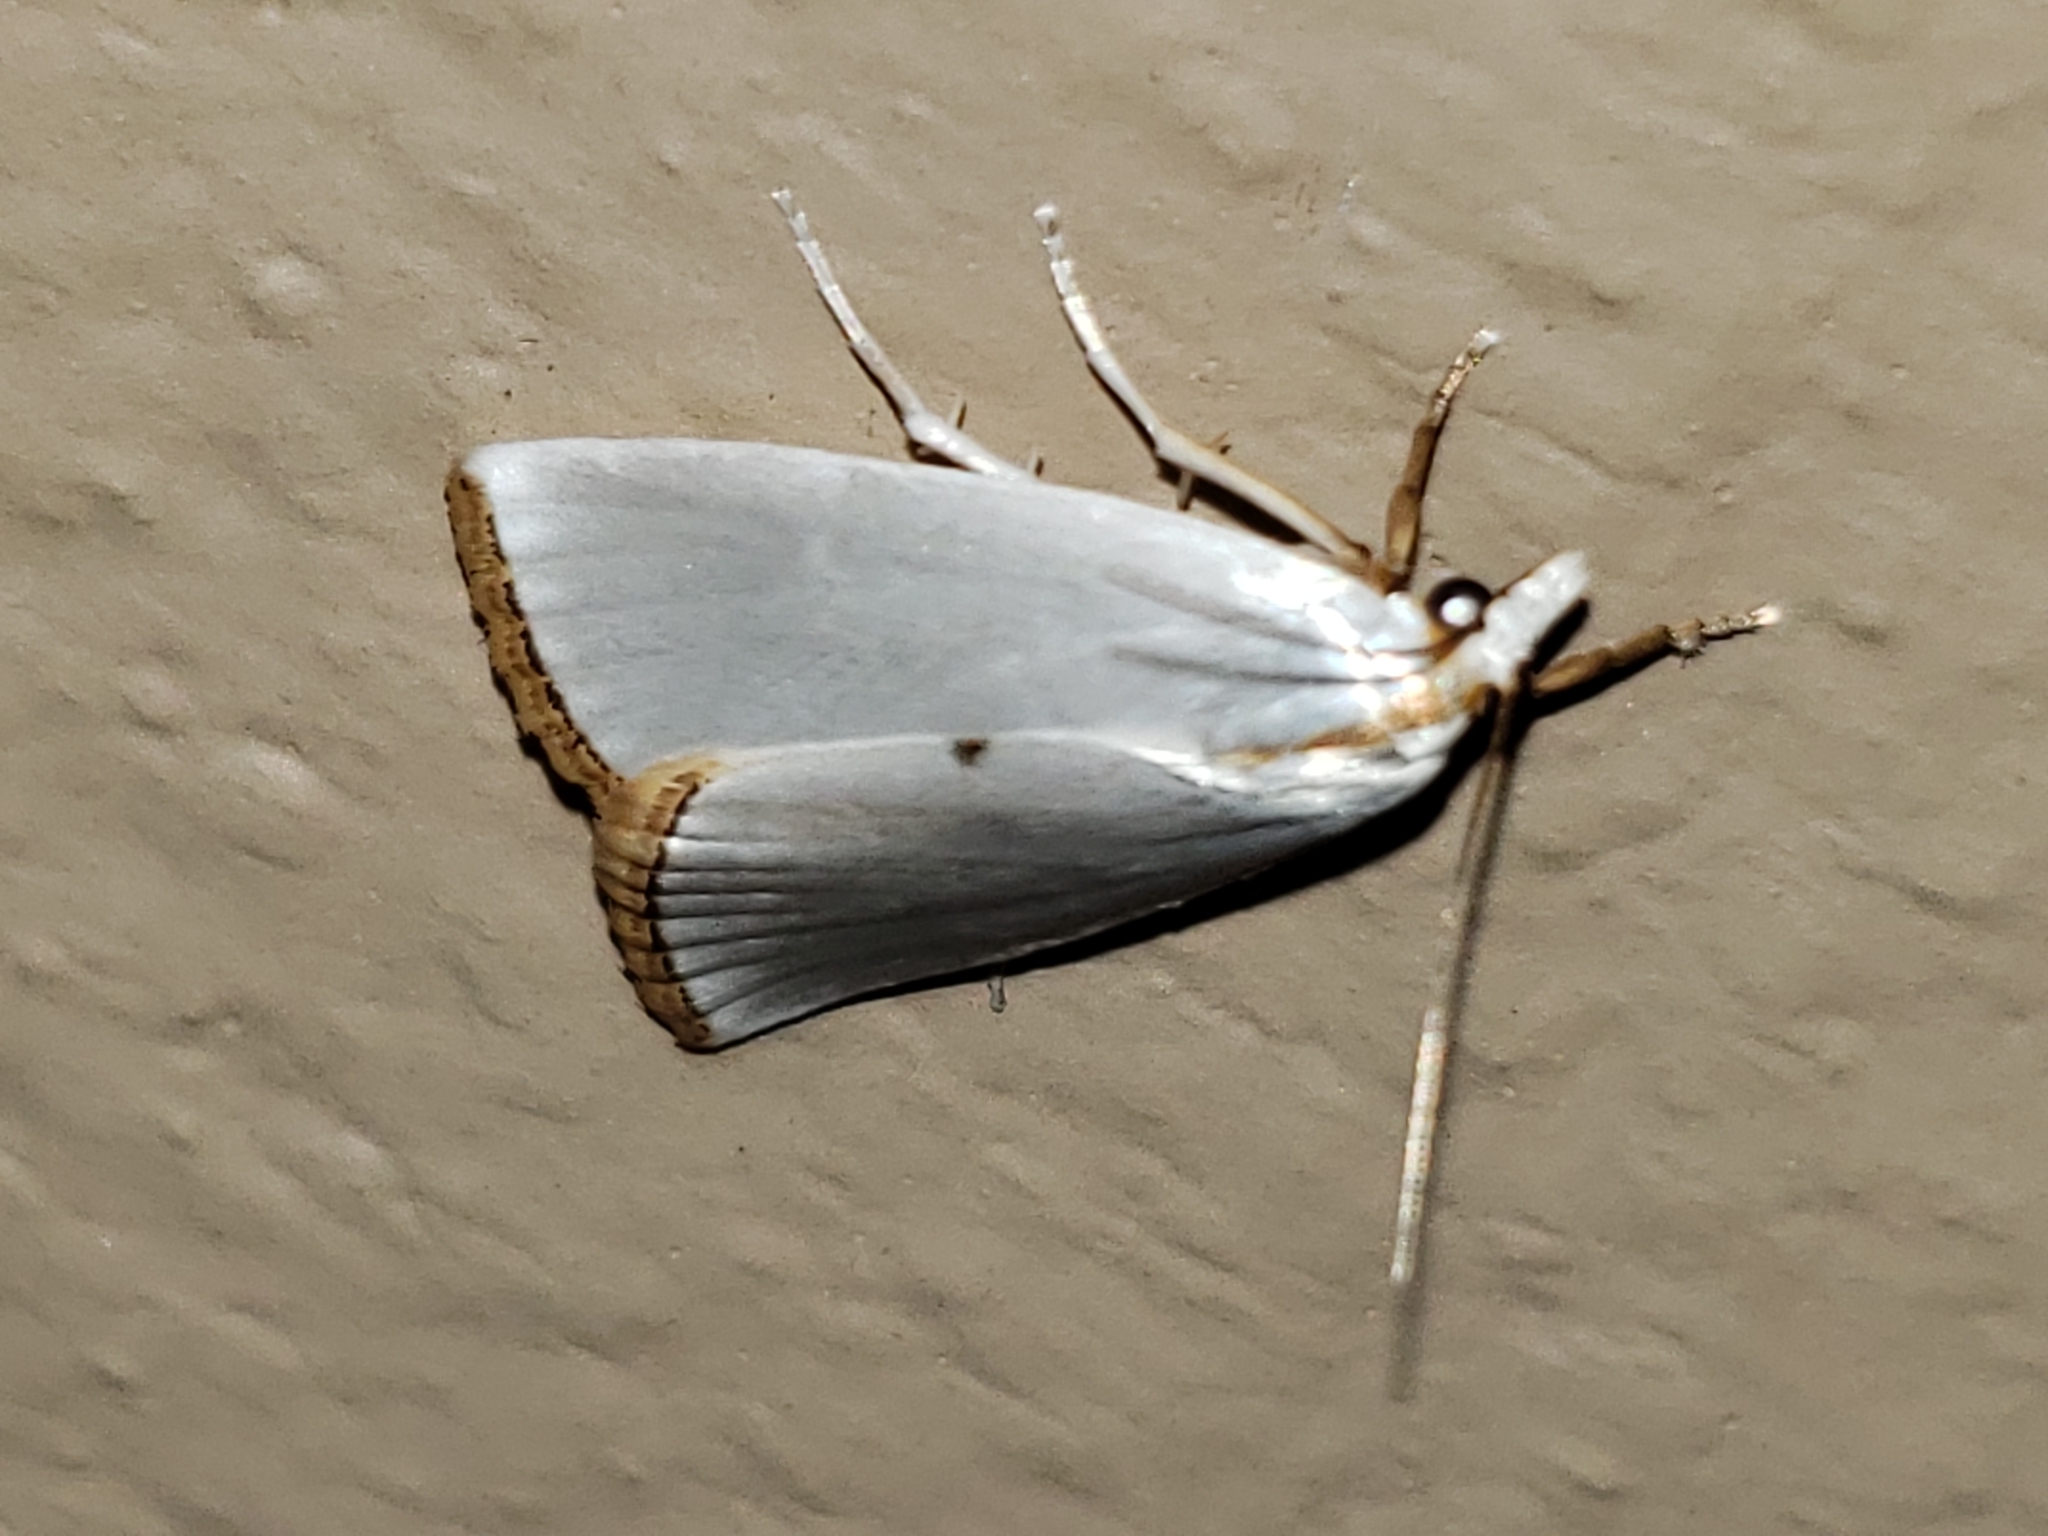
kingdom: Animalia
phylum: Arthropoda
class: Insecta
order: Lepidoptera
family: Crambidae
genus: Argyria
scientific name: Argyria nivalis
